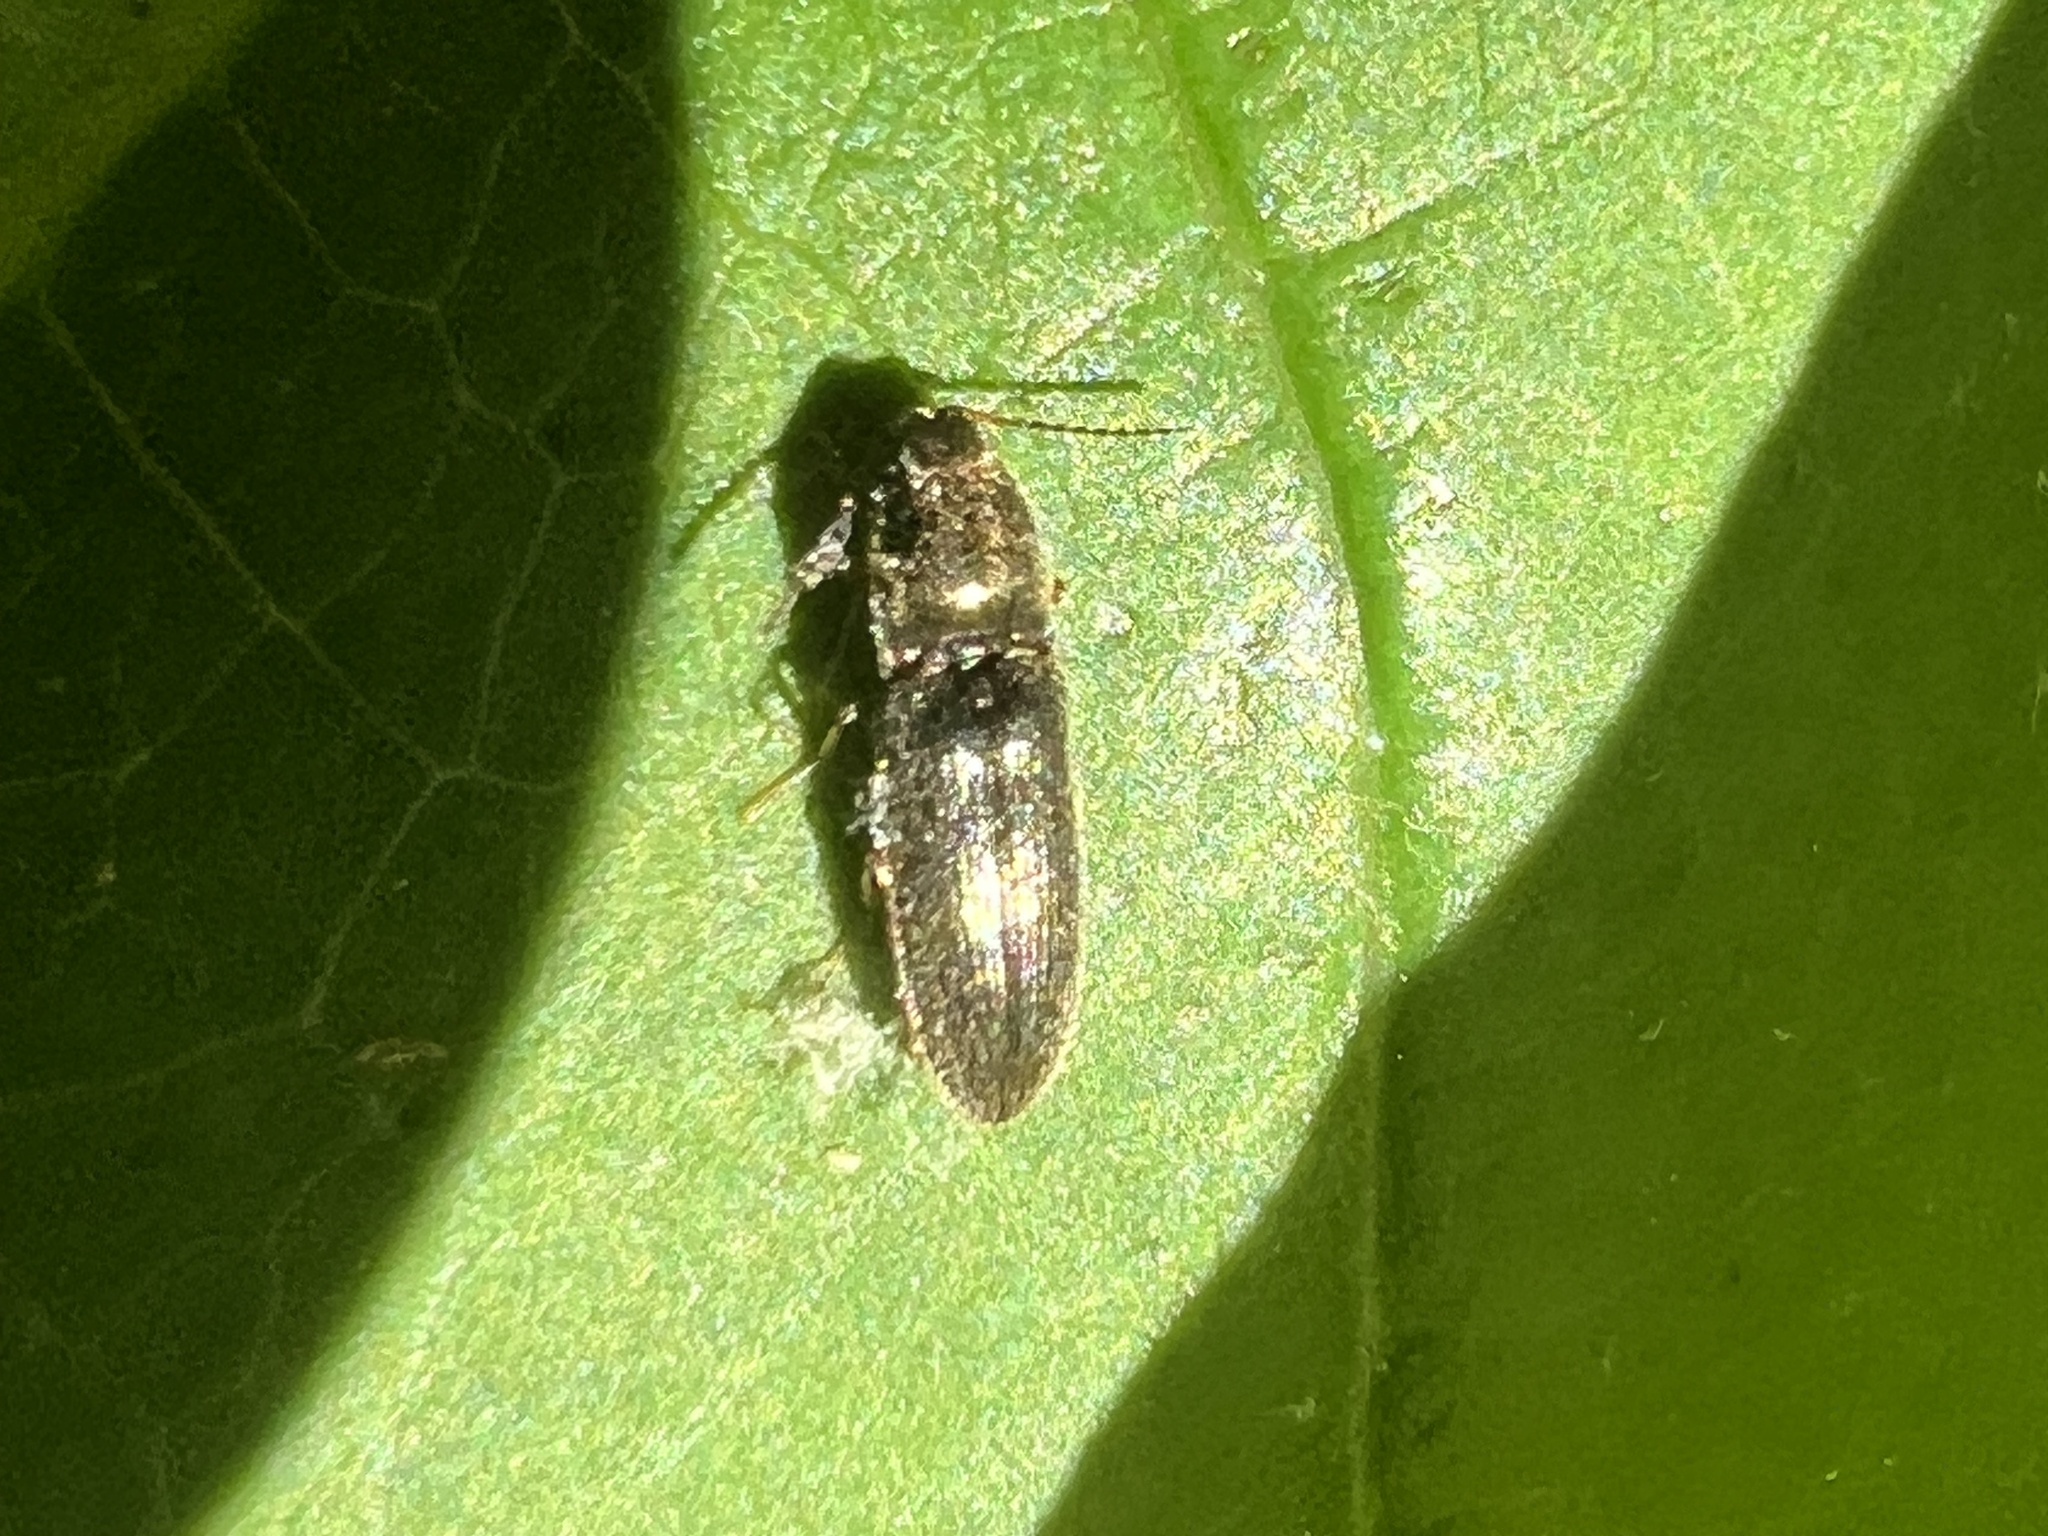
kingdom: Animalia
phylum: Arthropoda
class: Insecta
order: Coleoptera
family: Elateridae
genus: Limonius
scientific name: Limonius quercinus
